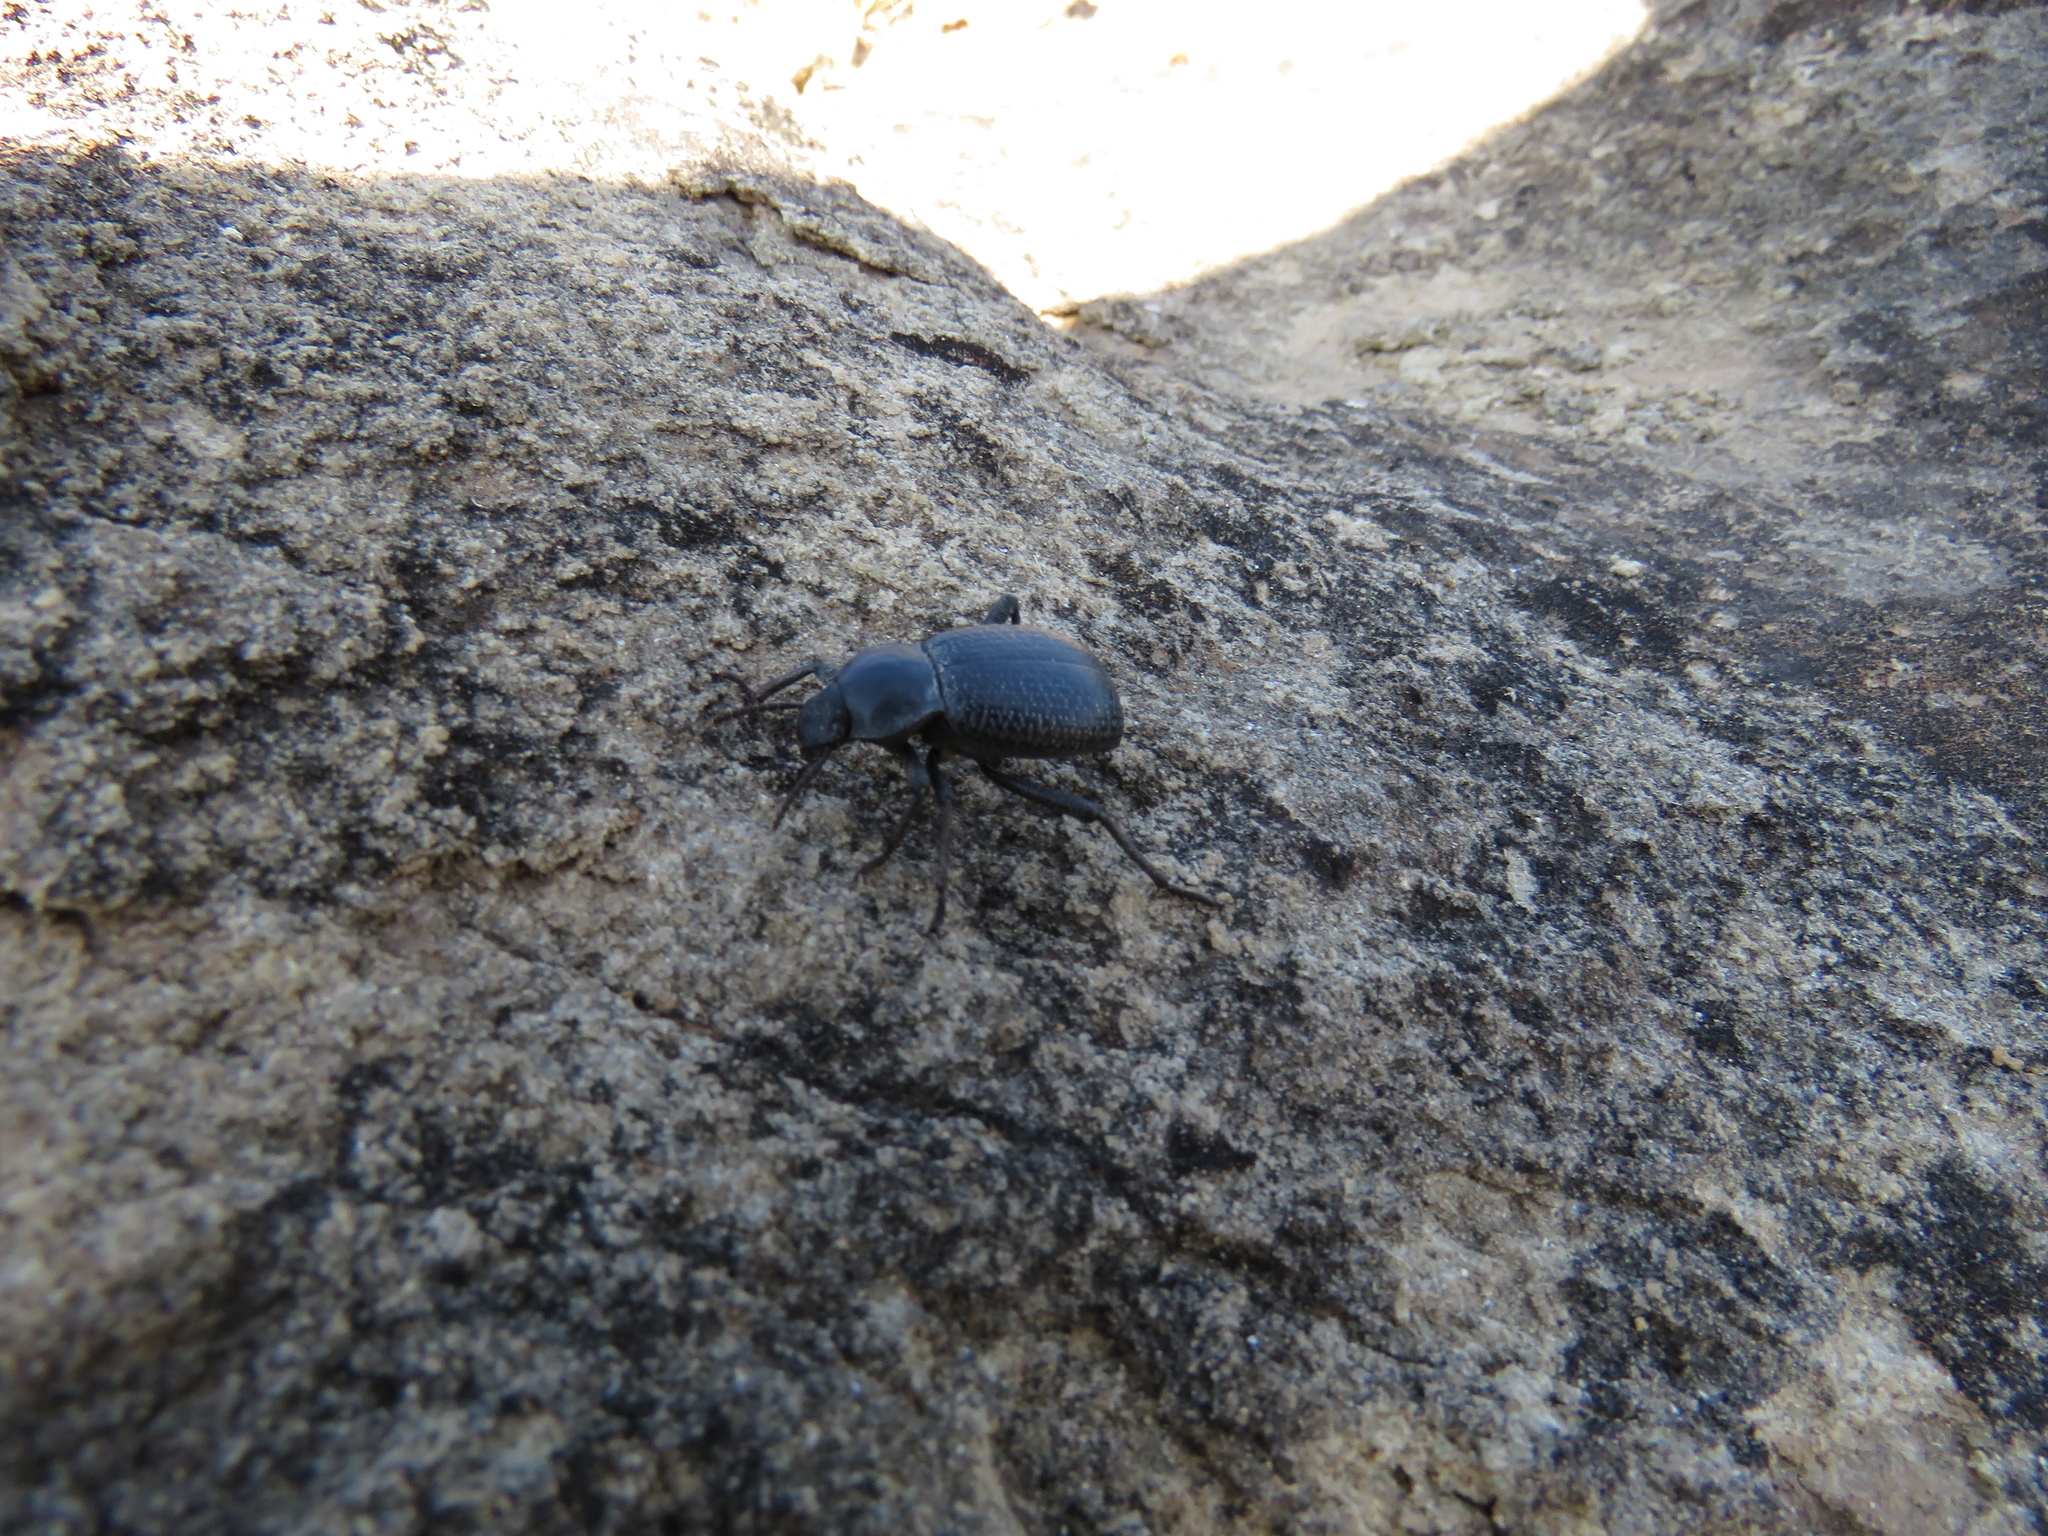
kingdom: Animalia
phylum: Arthropoda
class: Insecta
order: Coleoptera
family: Tenebrionidae
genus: Cryptoglossa
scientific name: Cryptoglossa infausta
